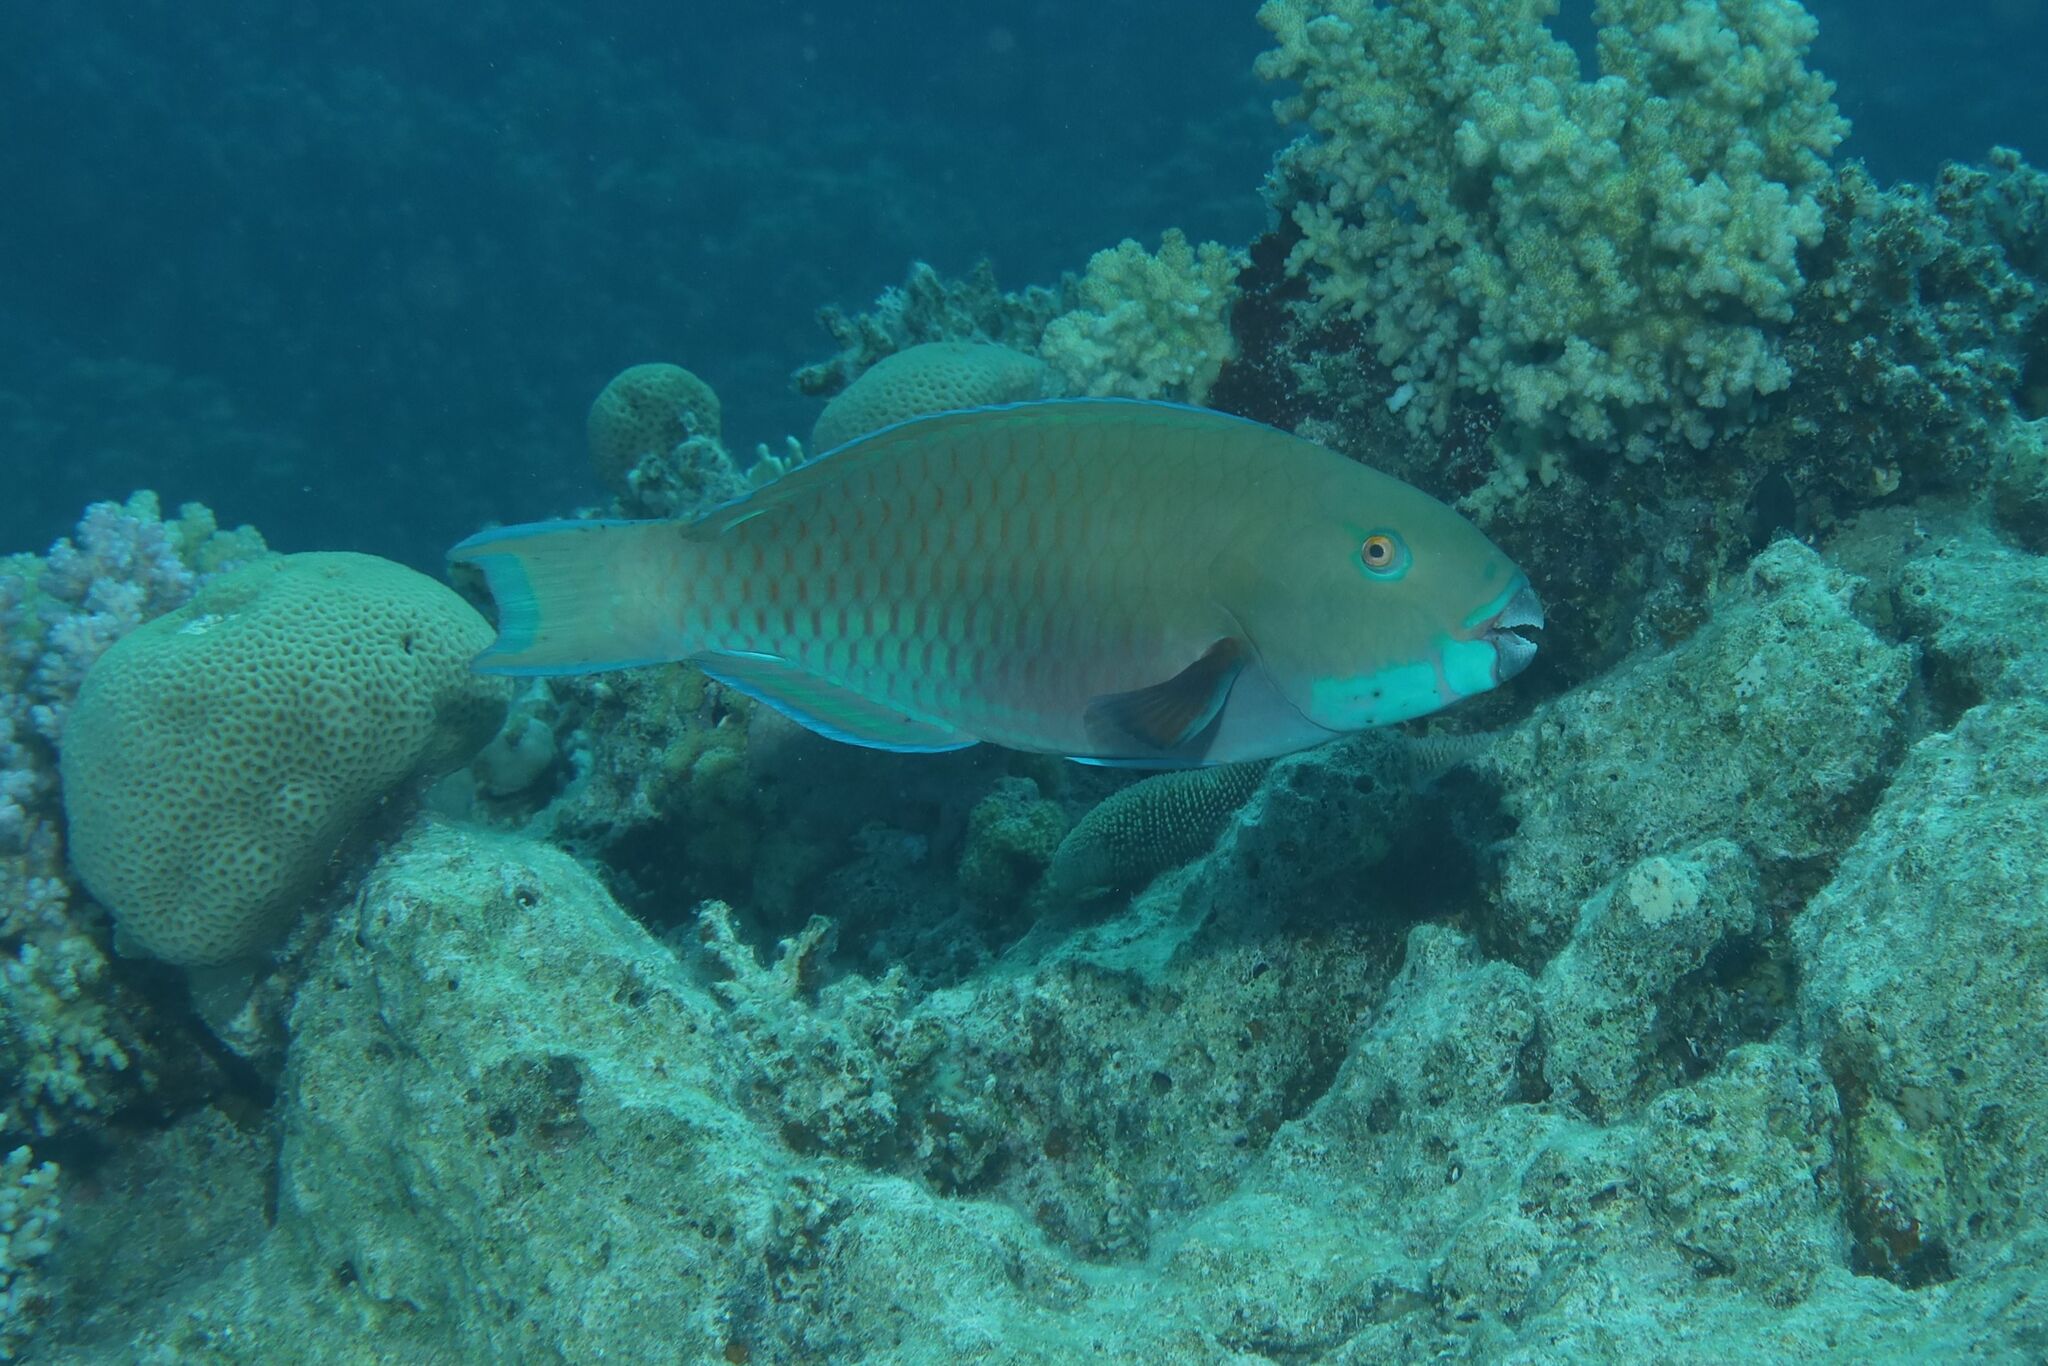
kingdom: Animalia
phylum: Chordata
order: Perciformes
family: Scaridae
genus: Chlorurus
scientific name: Chlorurus gibbus
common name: Heavybeak parrotfish
